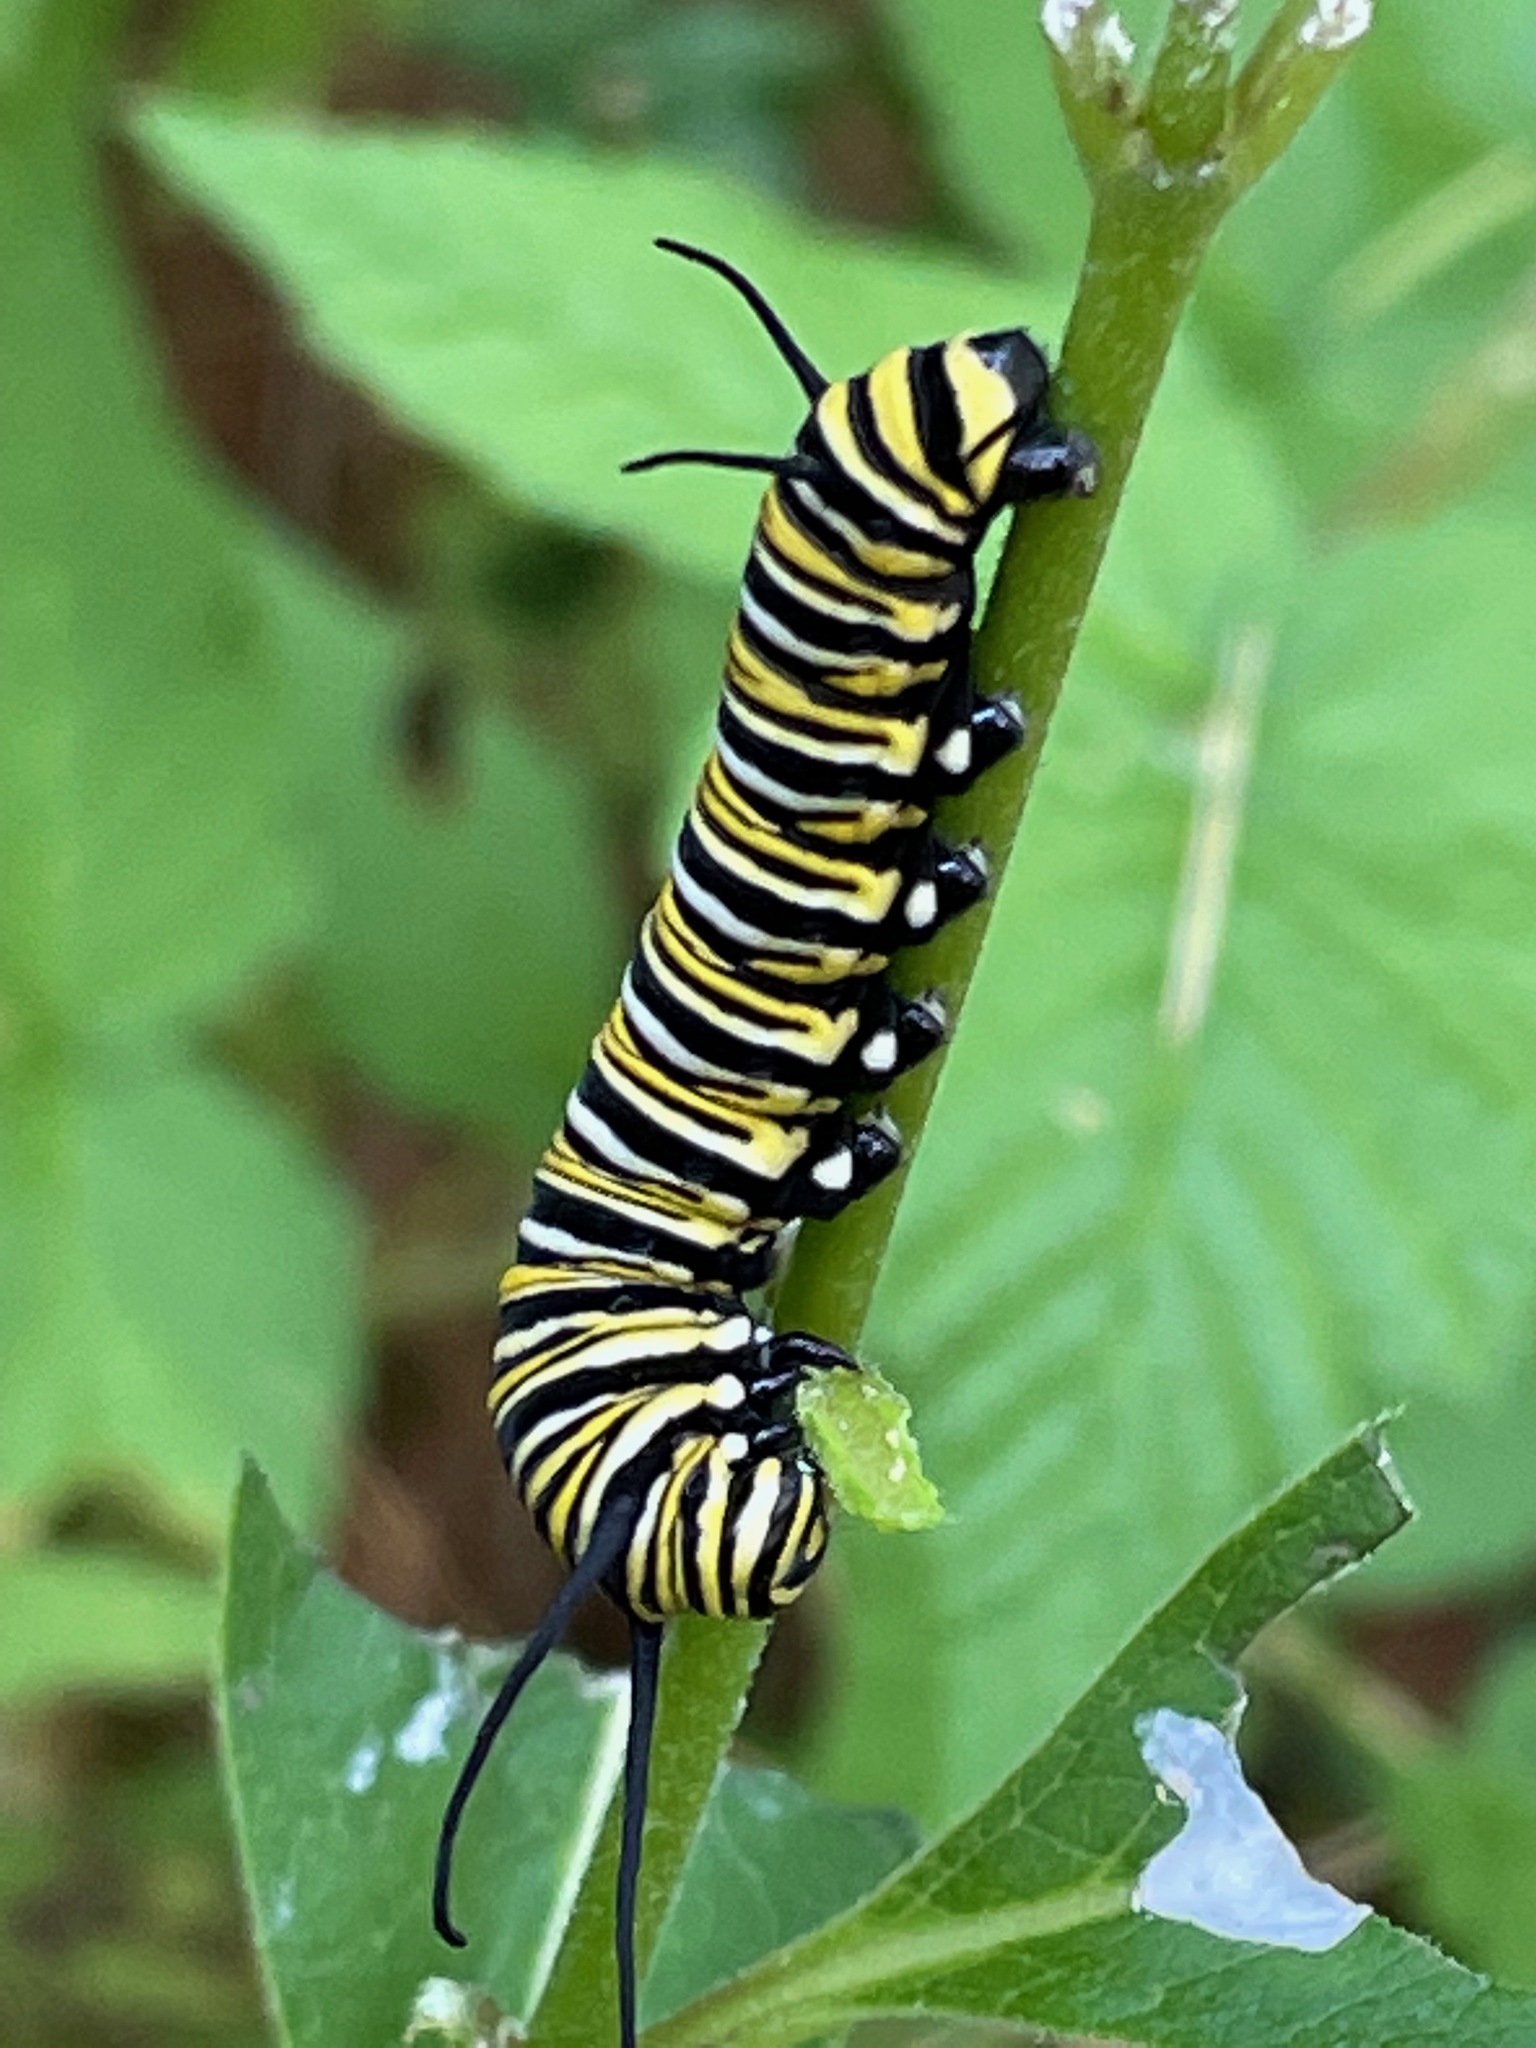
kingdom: Animalia
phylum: Arthropoda
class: Insecta
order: Lepidoptera
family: Nymphalidae
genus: Danaus
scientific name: Danaus plexippus
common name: Monarch
